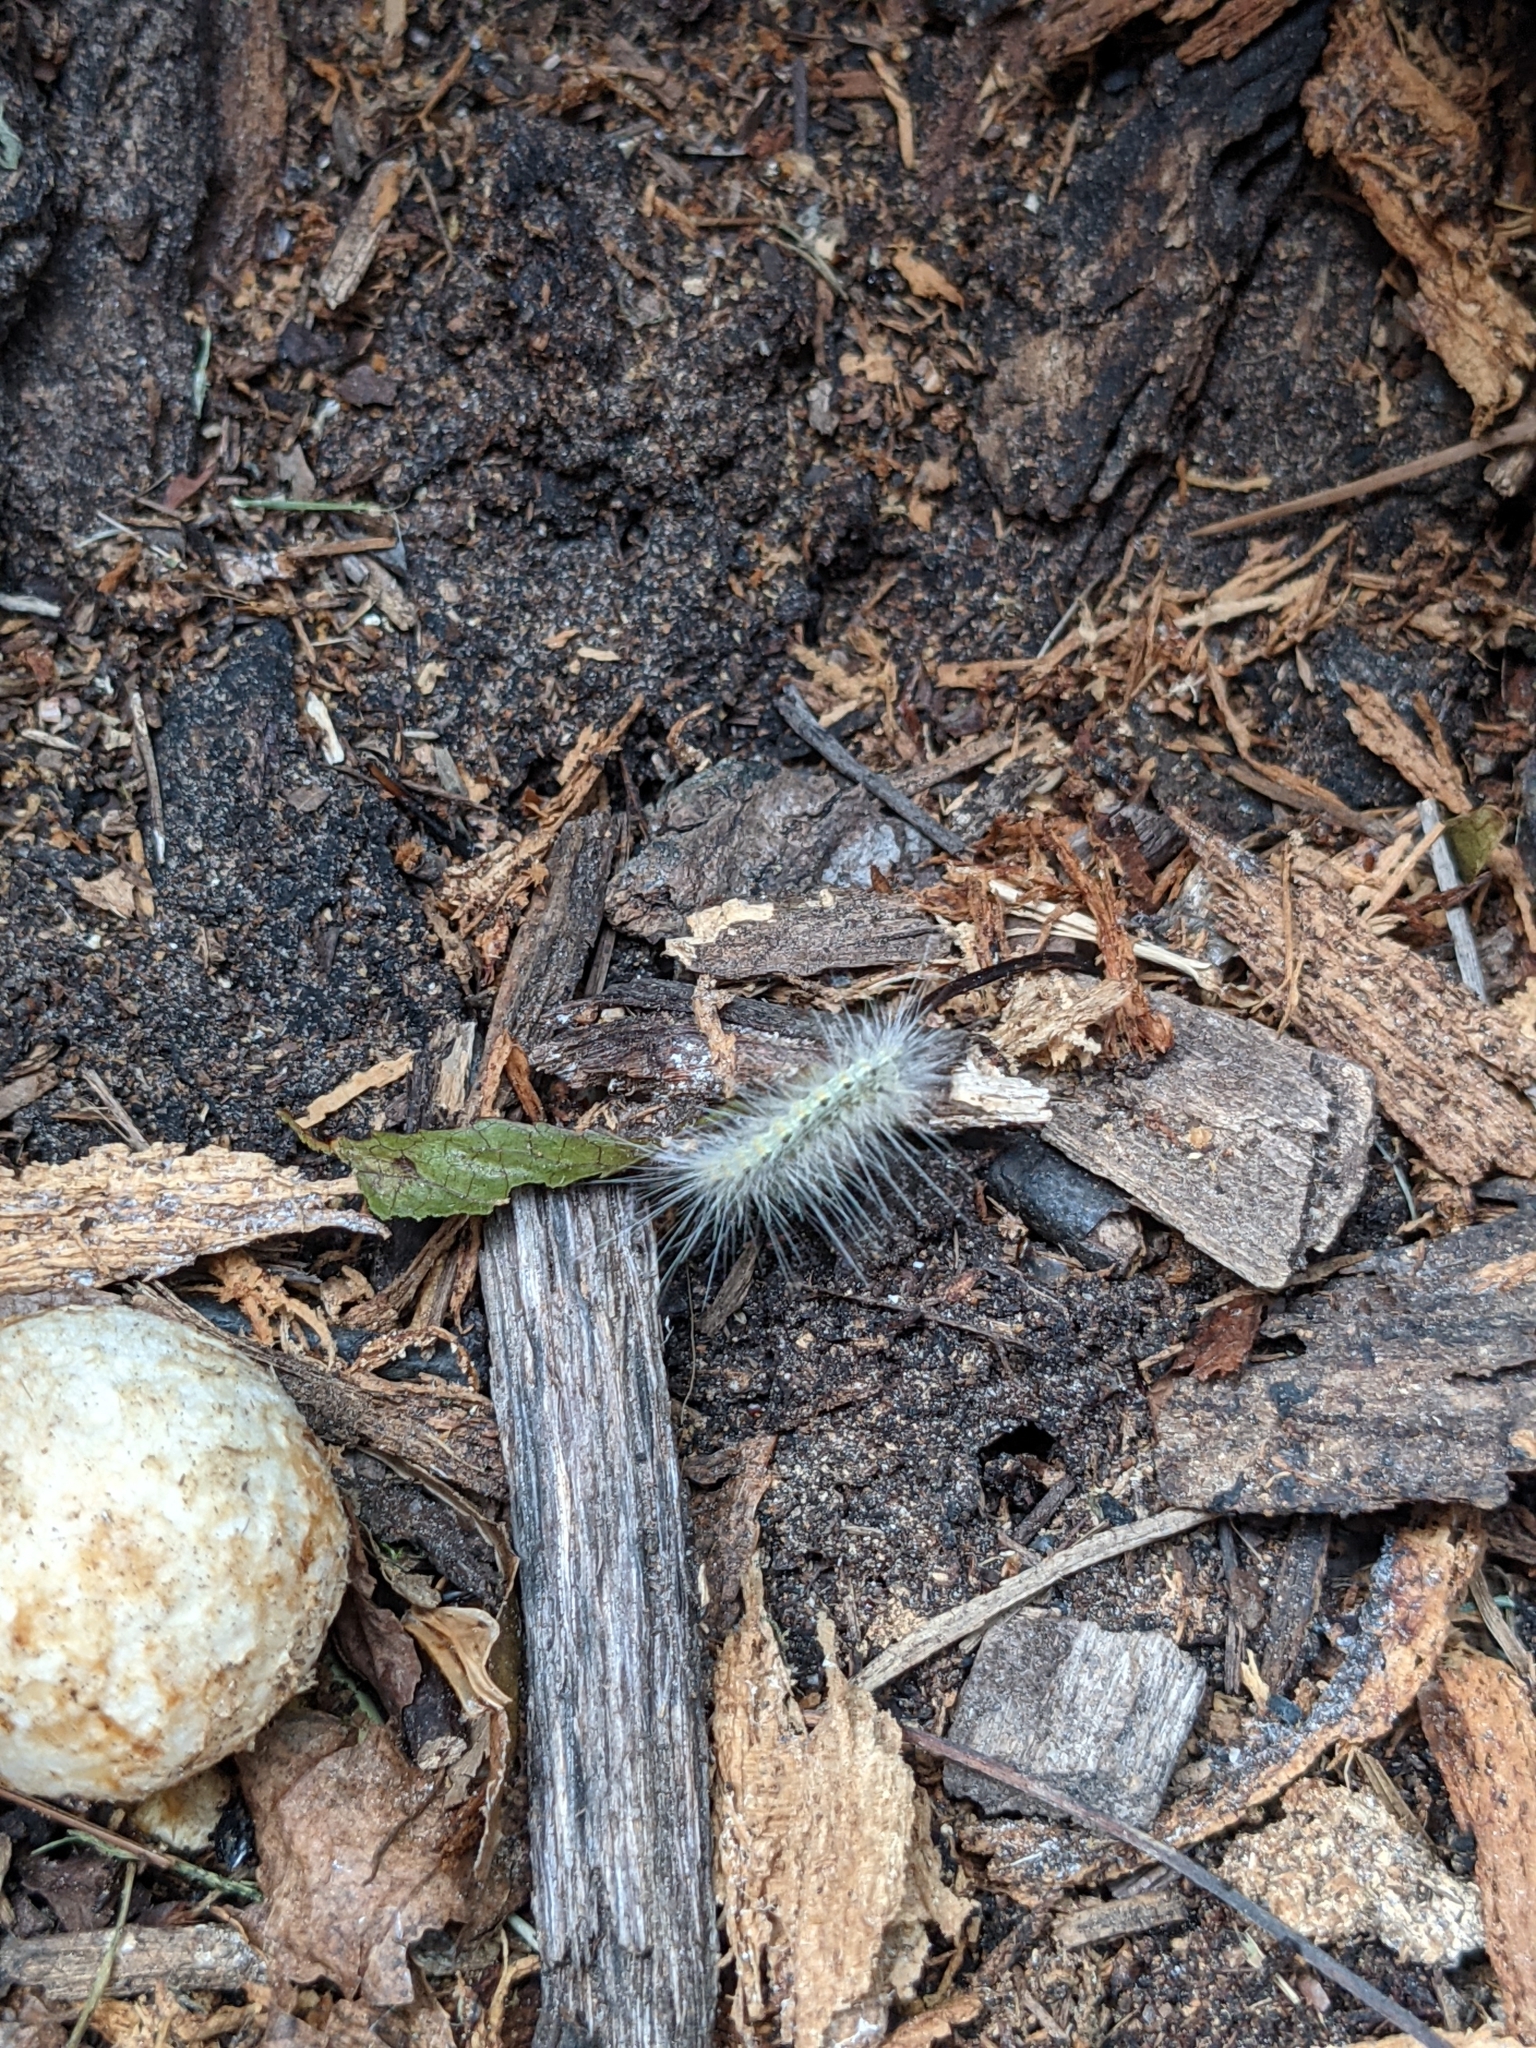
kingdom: Animalia
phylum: Arthropoda
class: Insecta
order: Lepidoptera
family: Erebidae
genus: Hyphantria
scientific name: Hyphantria cunea
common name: American white moth
